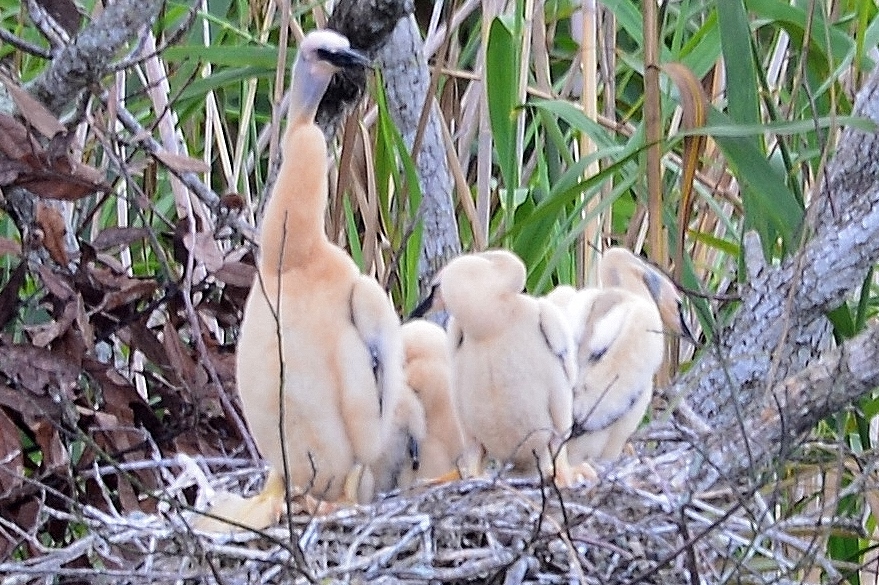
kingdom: Animalia
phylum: Chordata
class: Aves
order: Suliformes
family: Anhingidae
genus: Anhinga
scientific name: Anhinga anhinga
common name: Anhinga
